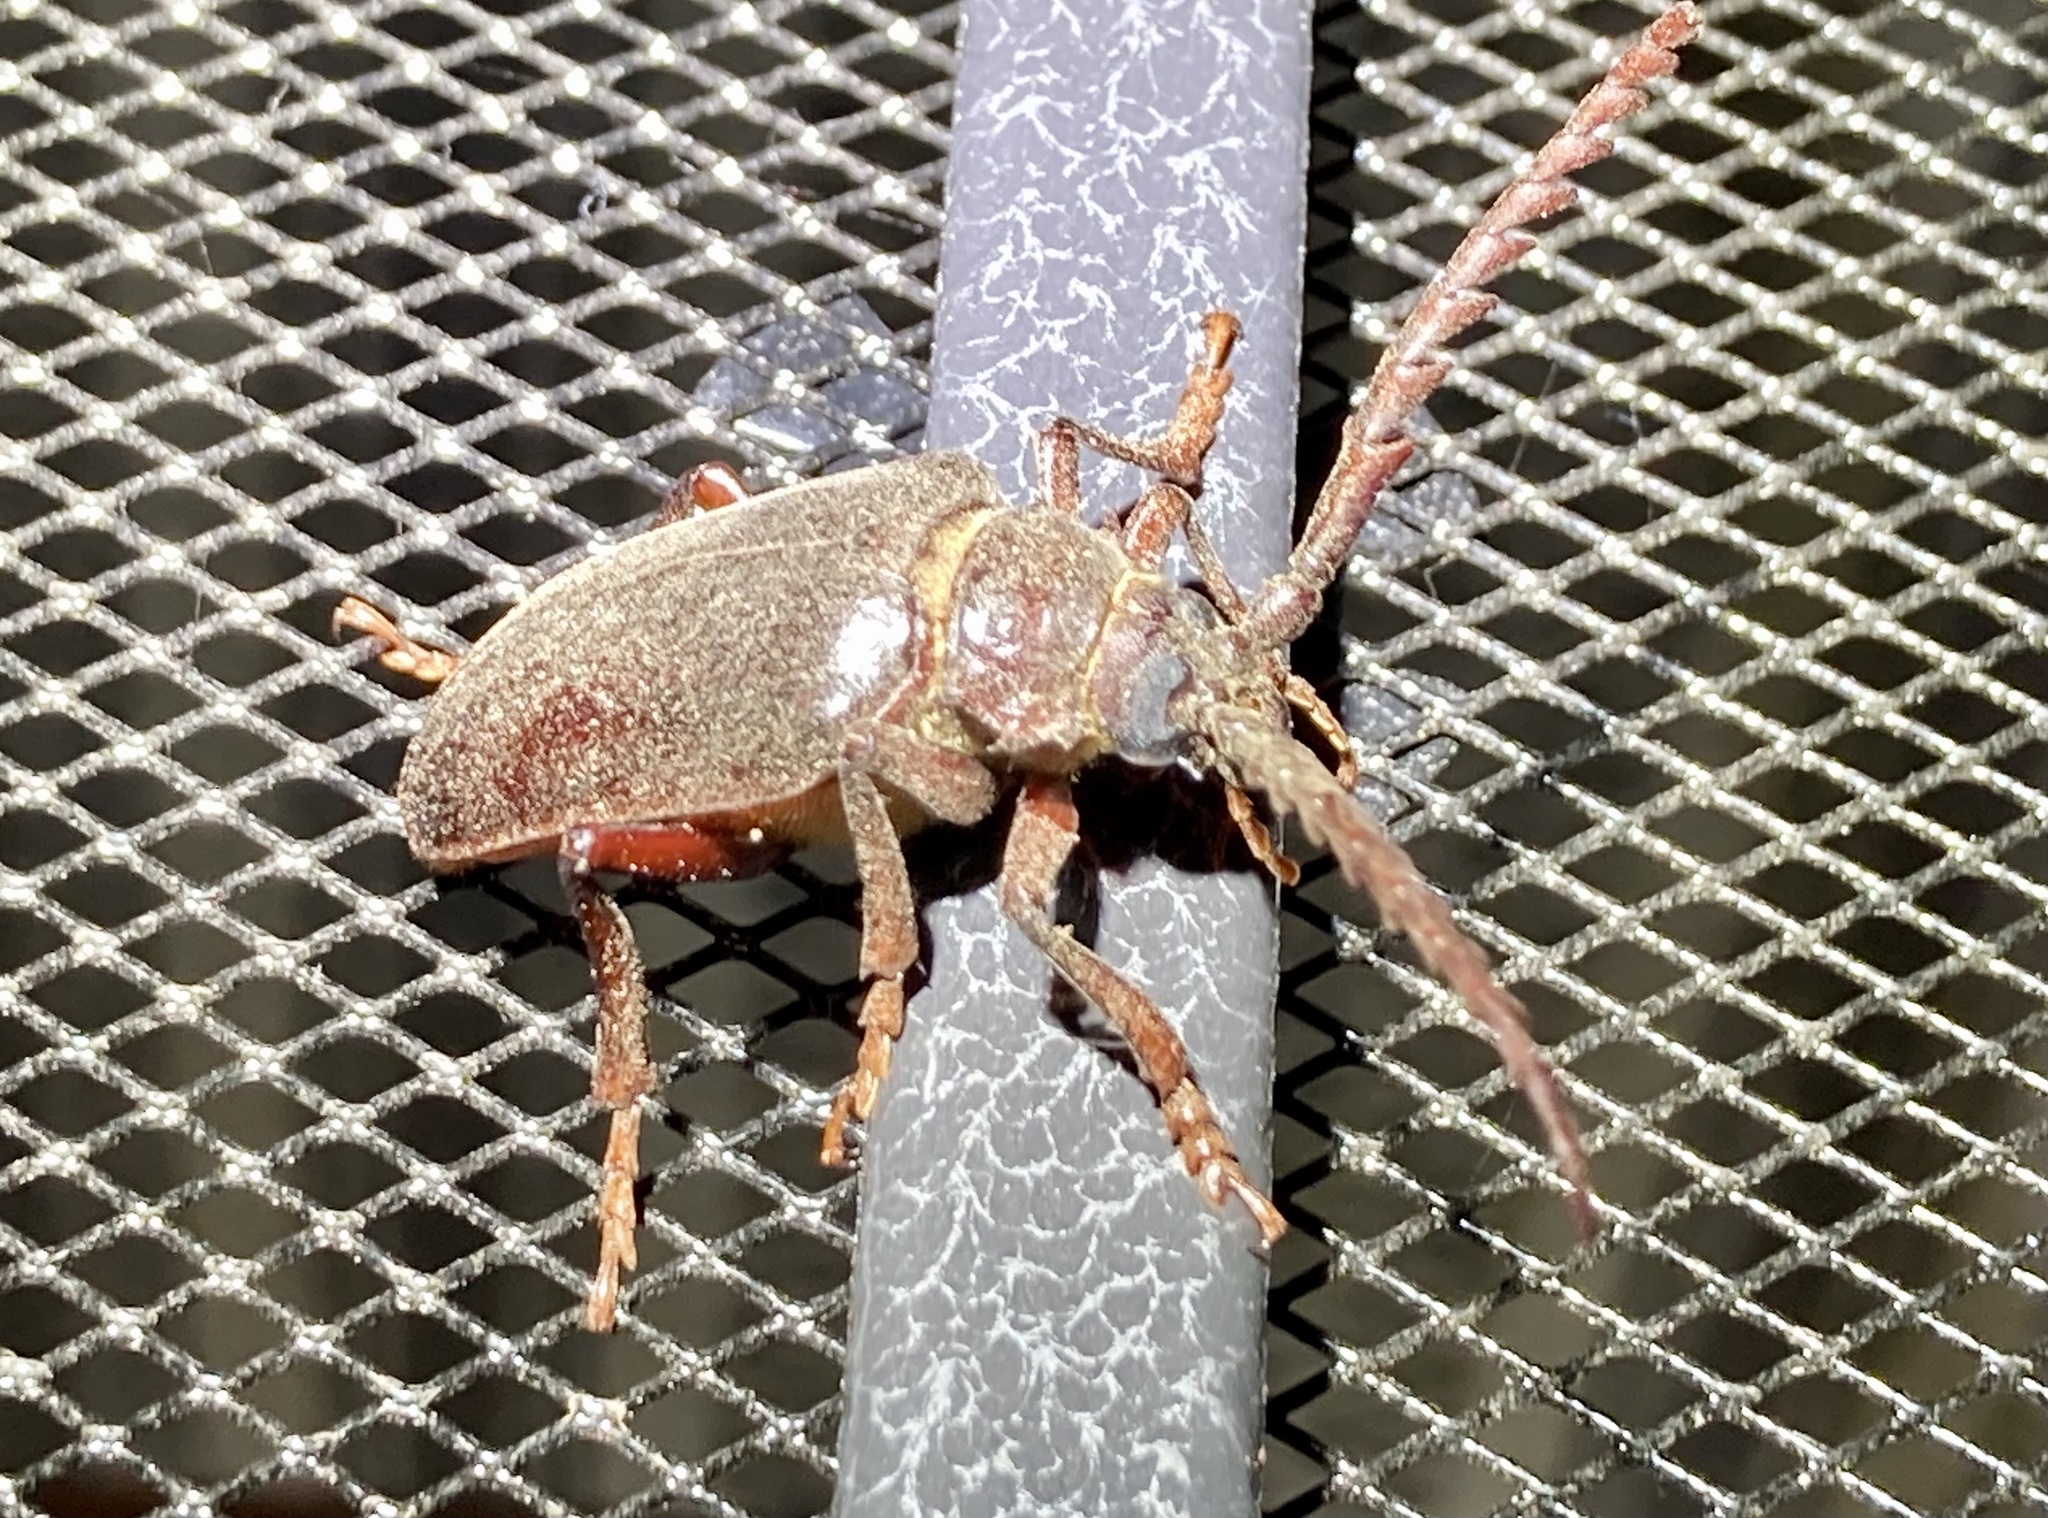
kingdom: Animalia
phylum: Arthropoda
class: Insecta
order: Coleoptera
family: Cerambycidae
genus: Prionus
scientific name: Prionus californicus
